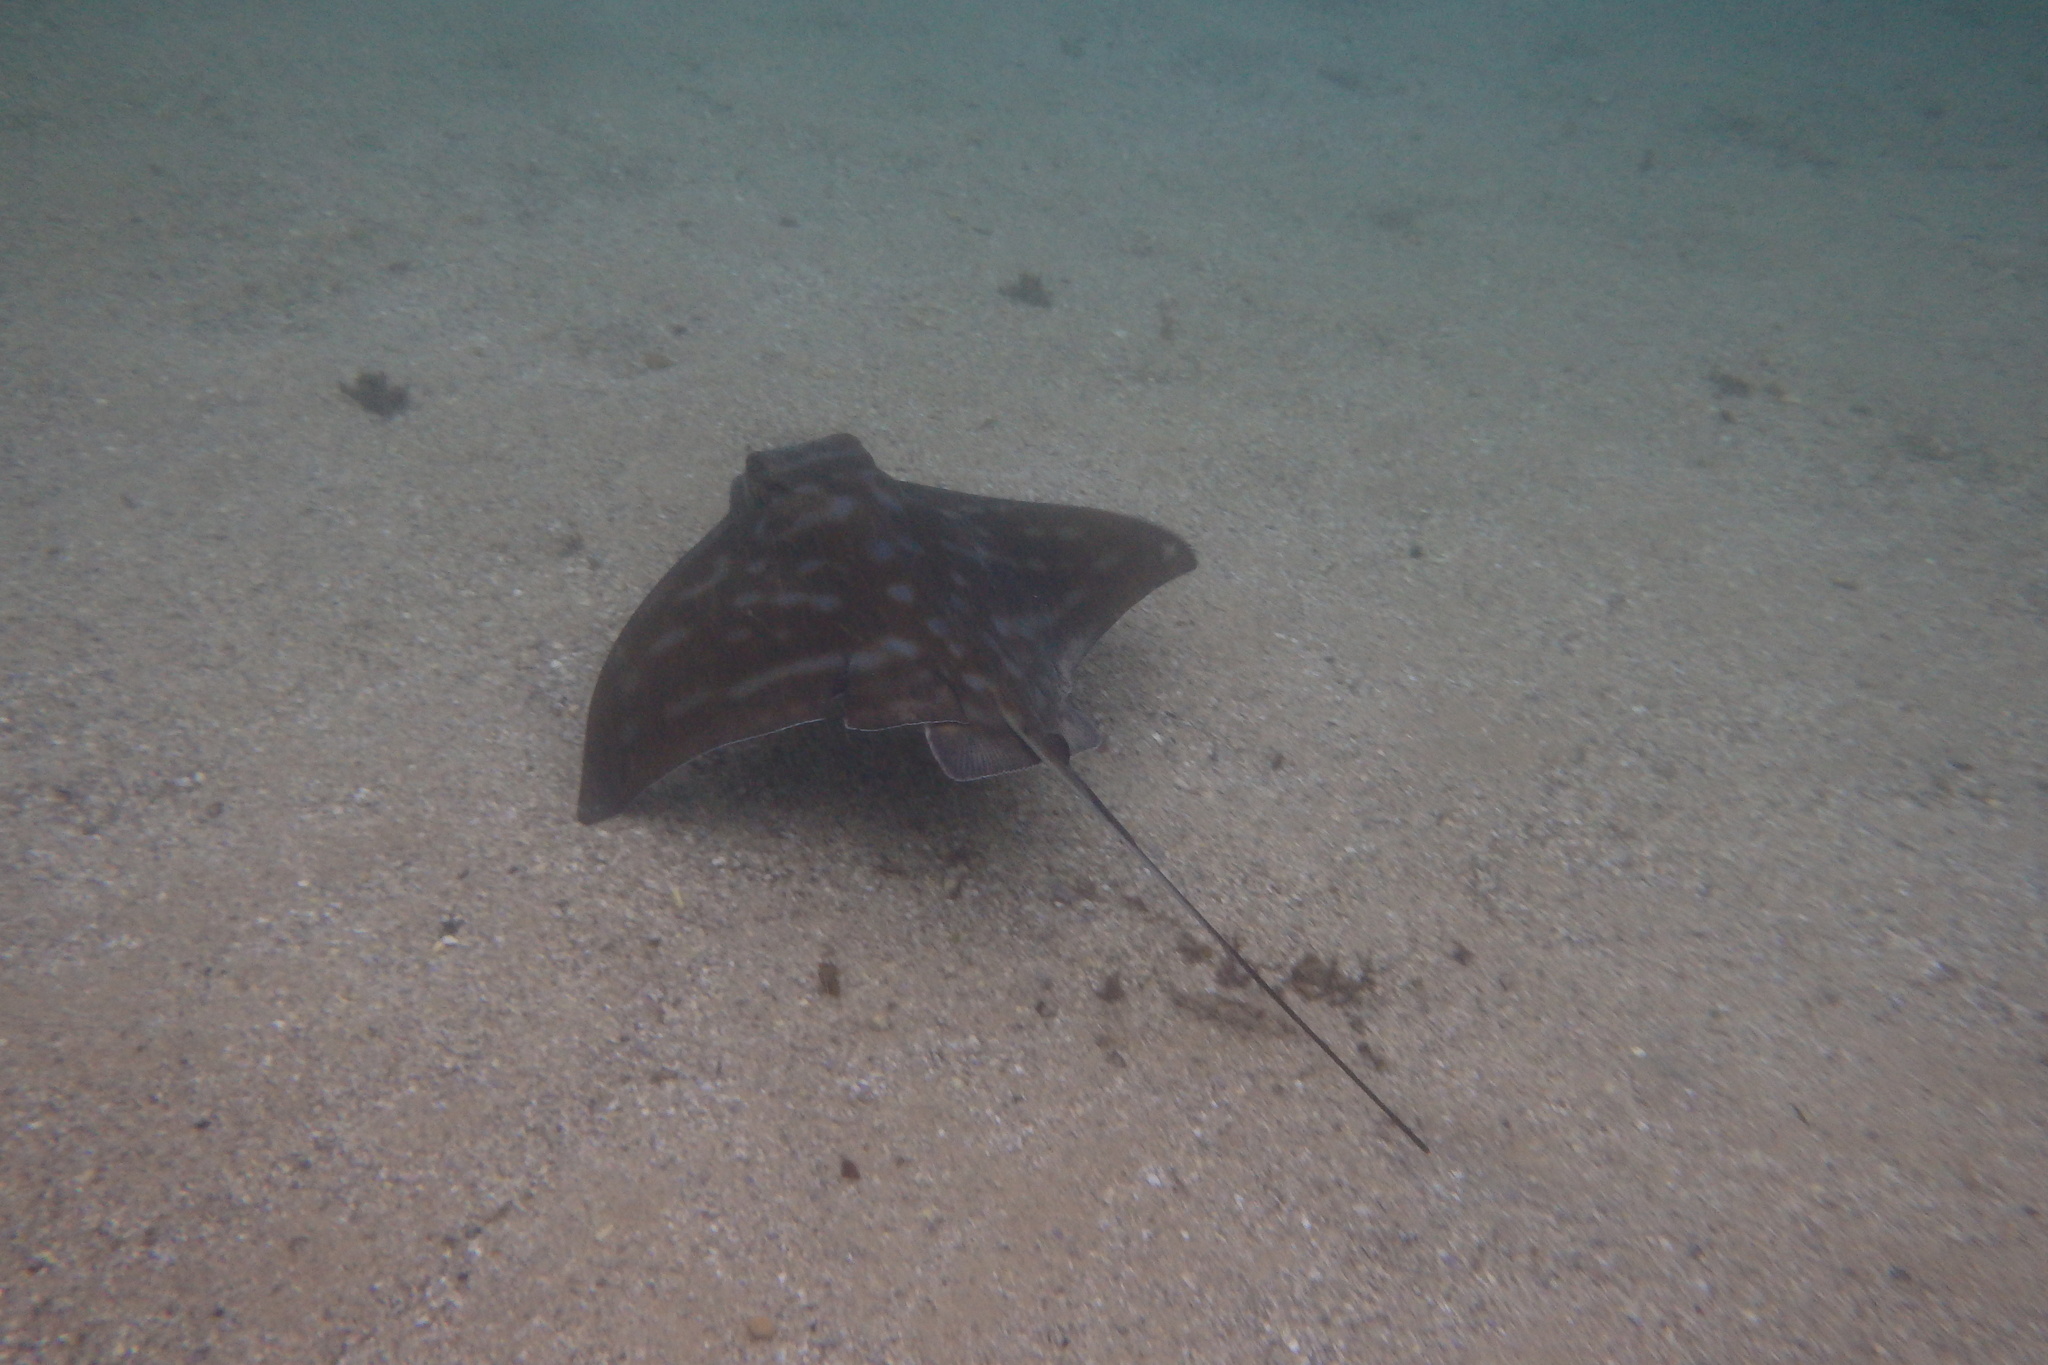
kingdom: Animalia
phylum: Chordata
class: Elasmobranchii
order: Myliobatiformes
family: Myliobatidae
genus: Myliobatis
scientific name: Myliobatis tenuicaudatus
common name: Eagle ray
